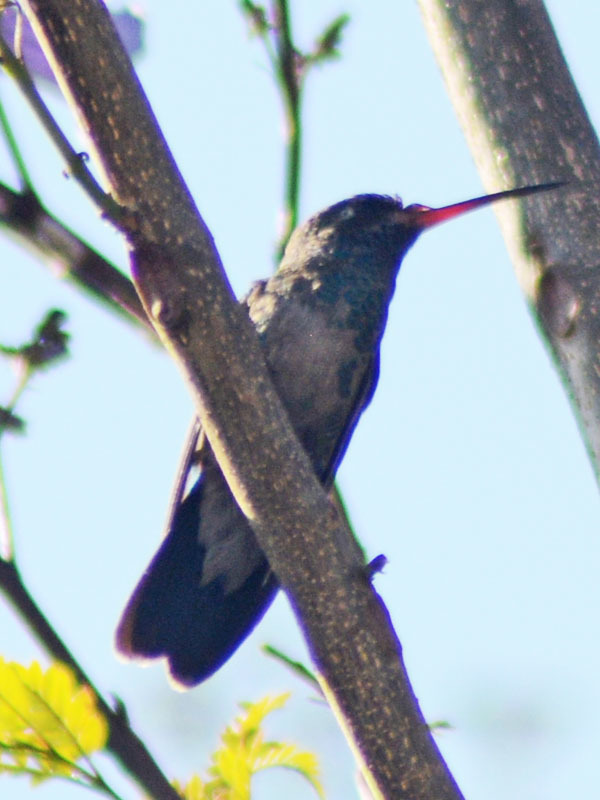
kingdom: Animalia
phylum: Chordata
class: Aves
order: Apodiformes
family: Trochilidae
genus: Cynanthus
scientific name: Cynanthus latirostris
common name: Broad-billed hummingbird
